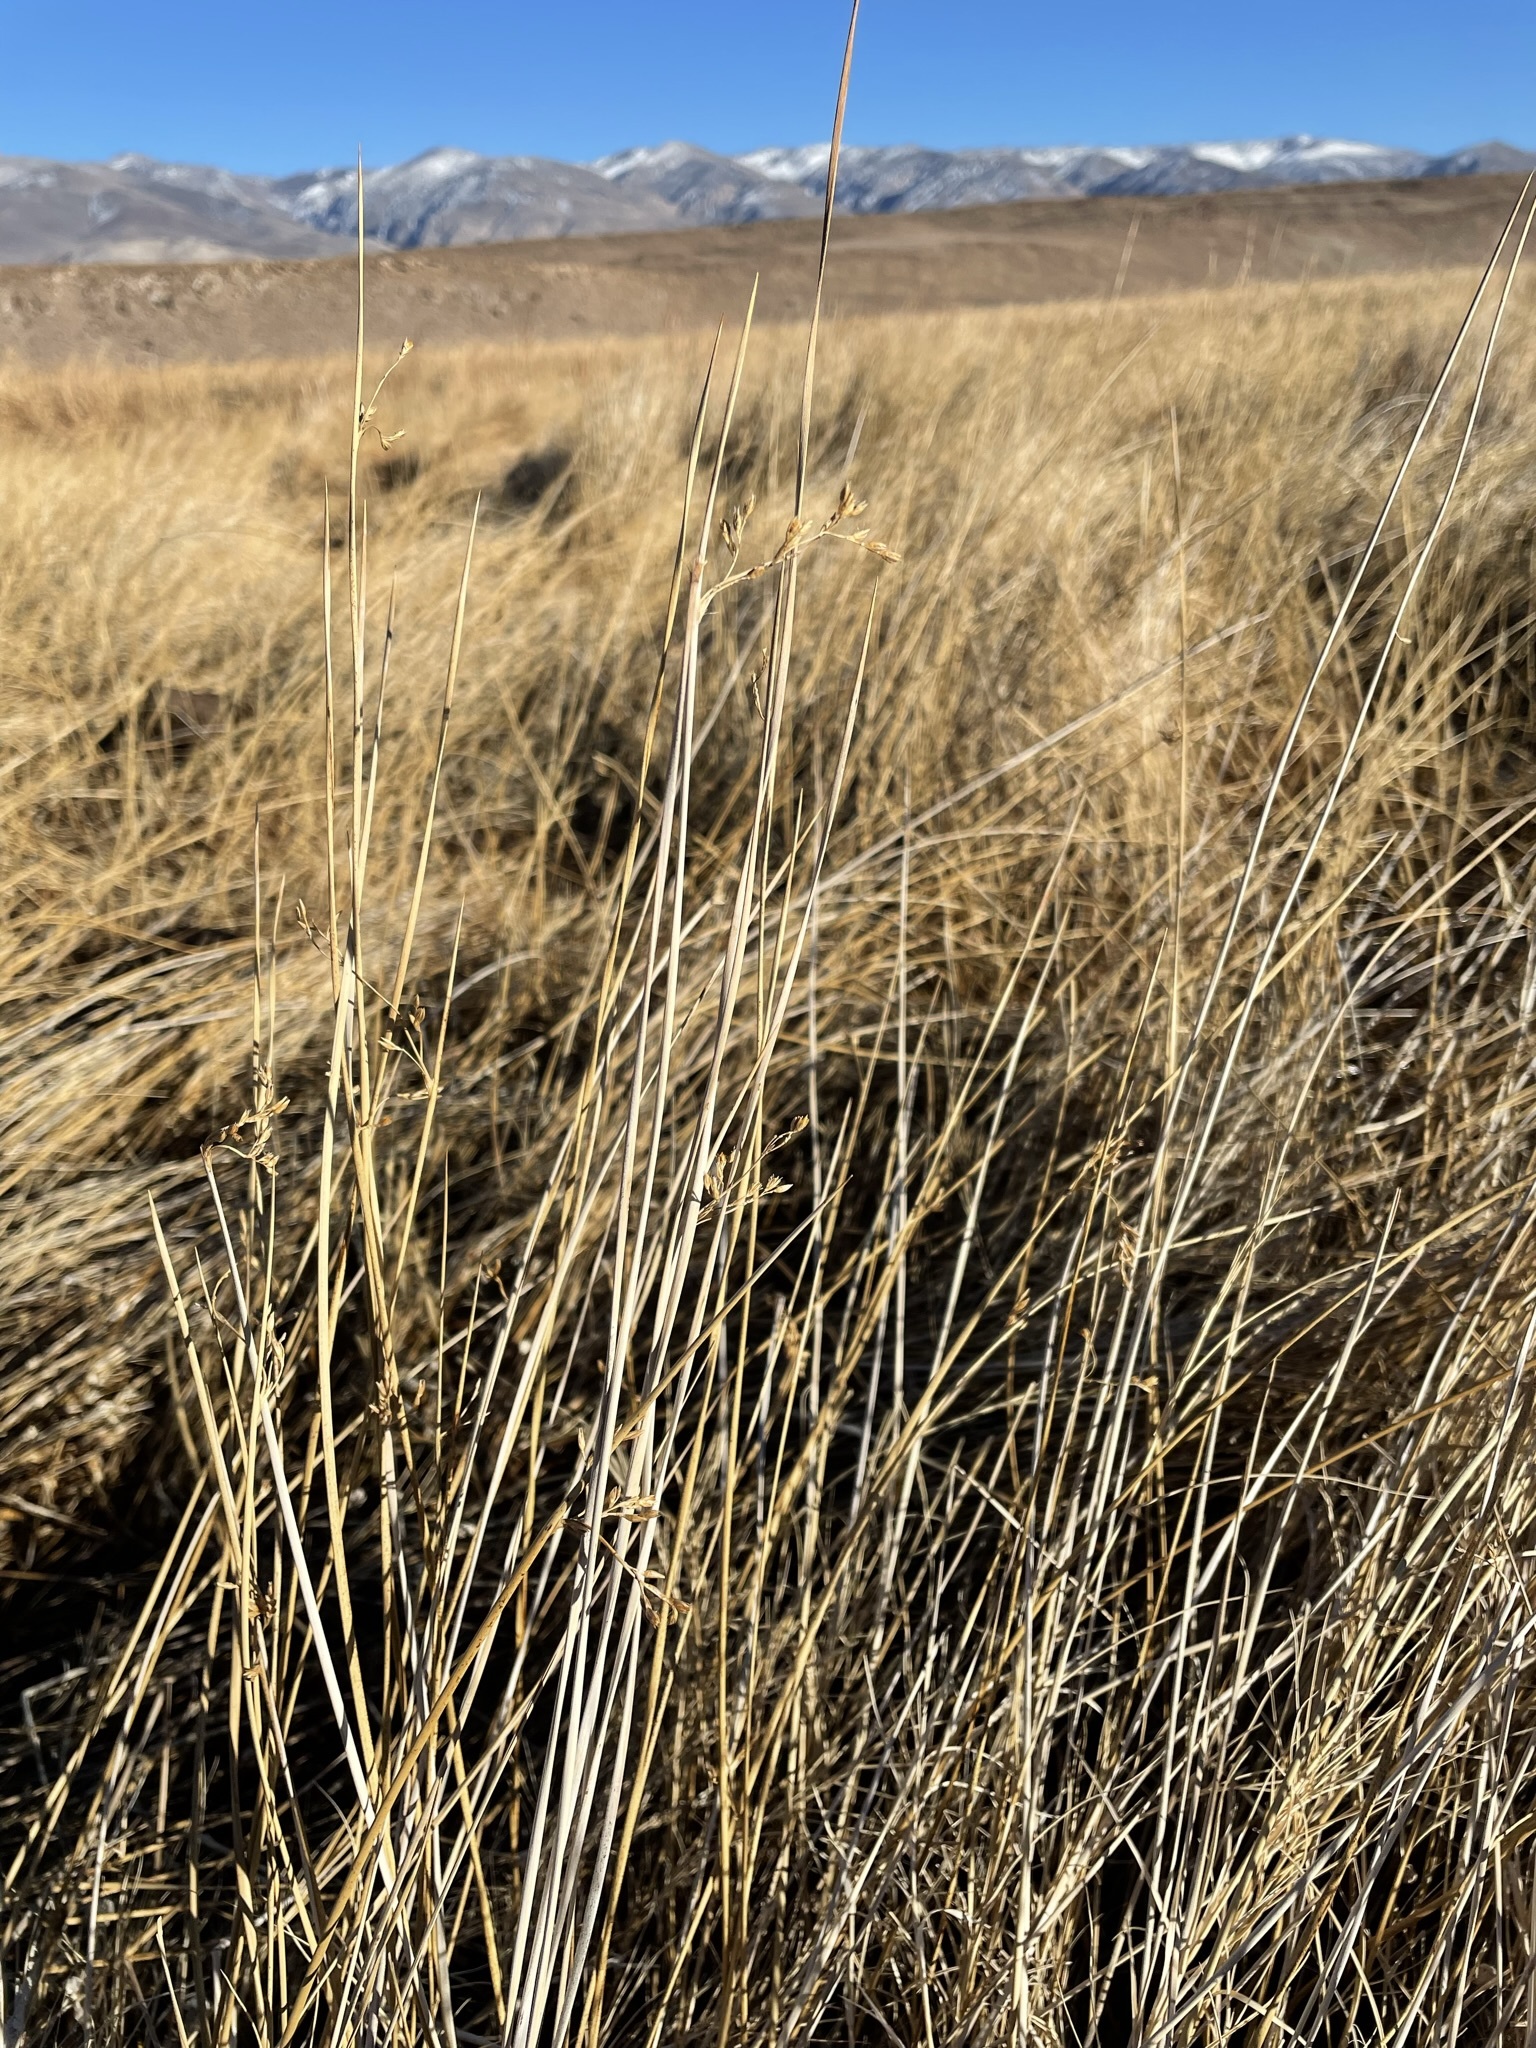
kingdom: Plantae
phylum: Tracheophyta
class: Liliopsida
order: Poales
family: Juncaceae
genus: Juncus
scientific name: Juncus balticus
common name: Baltic rush
